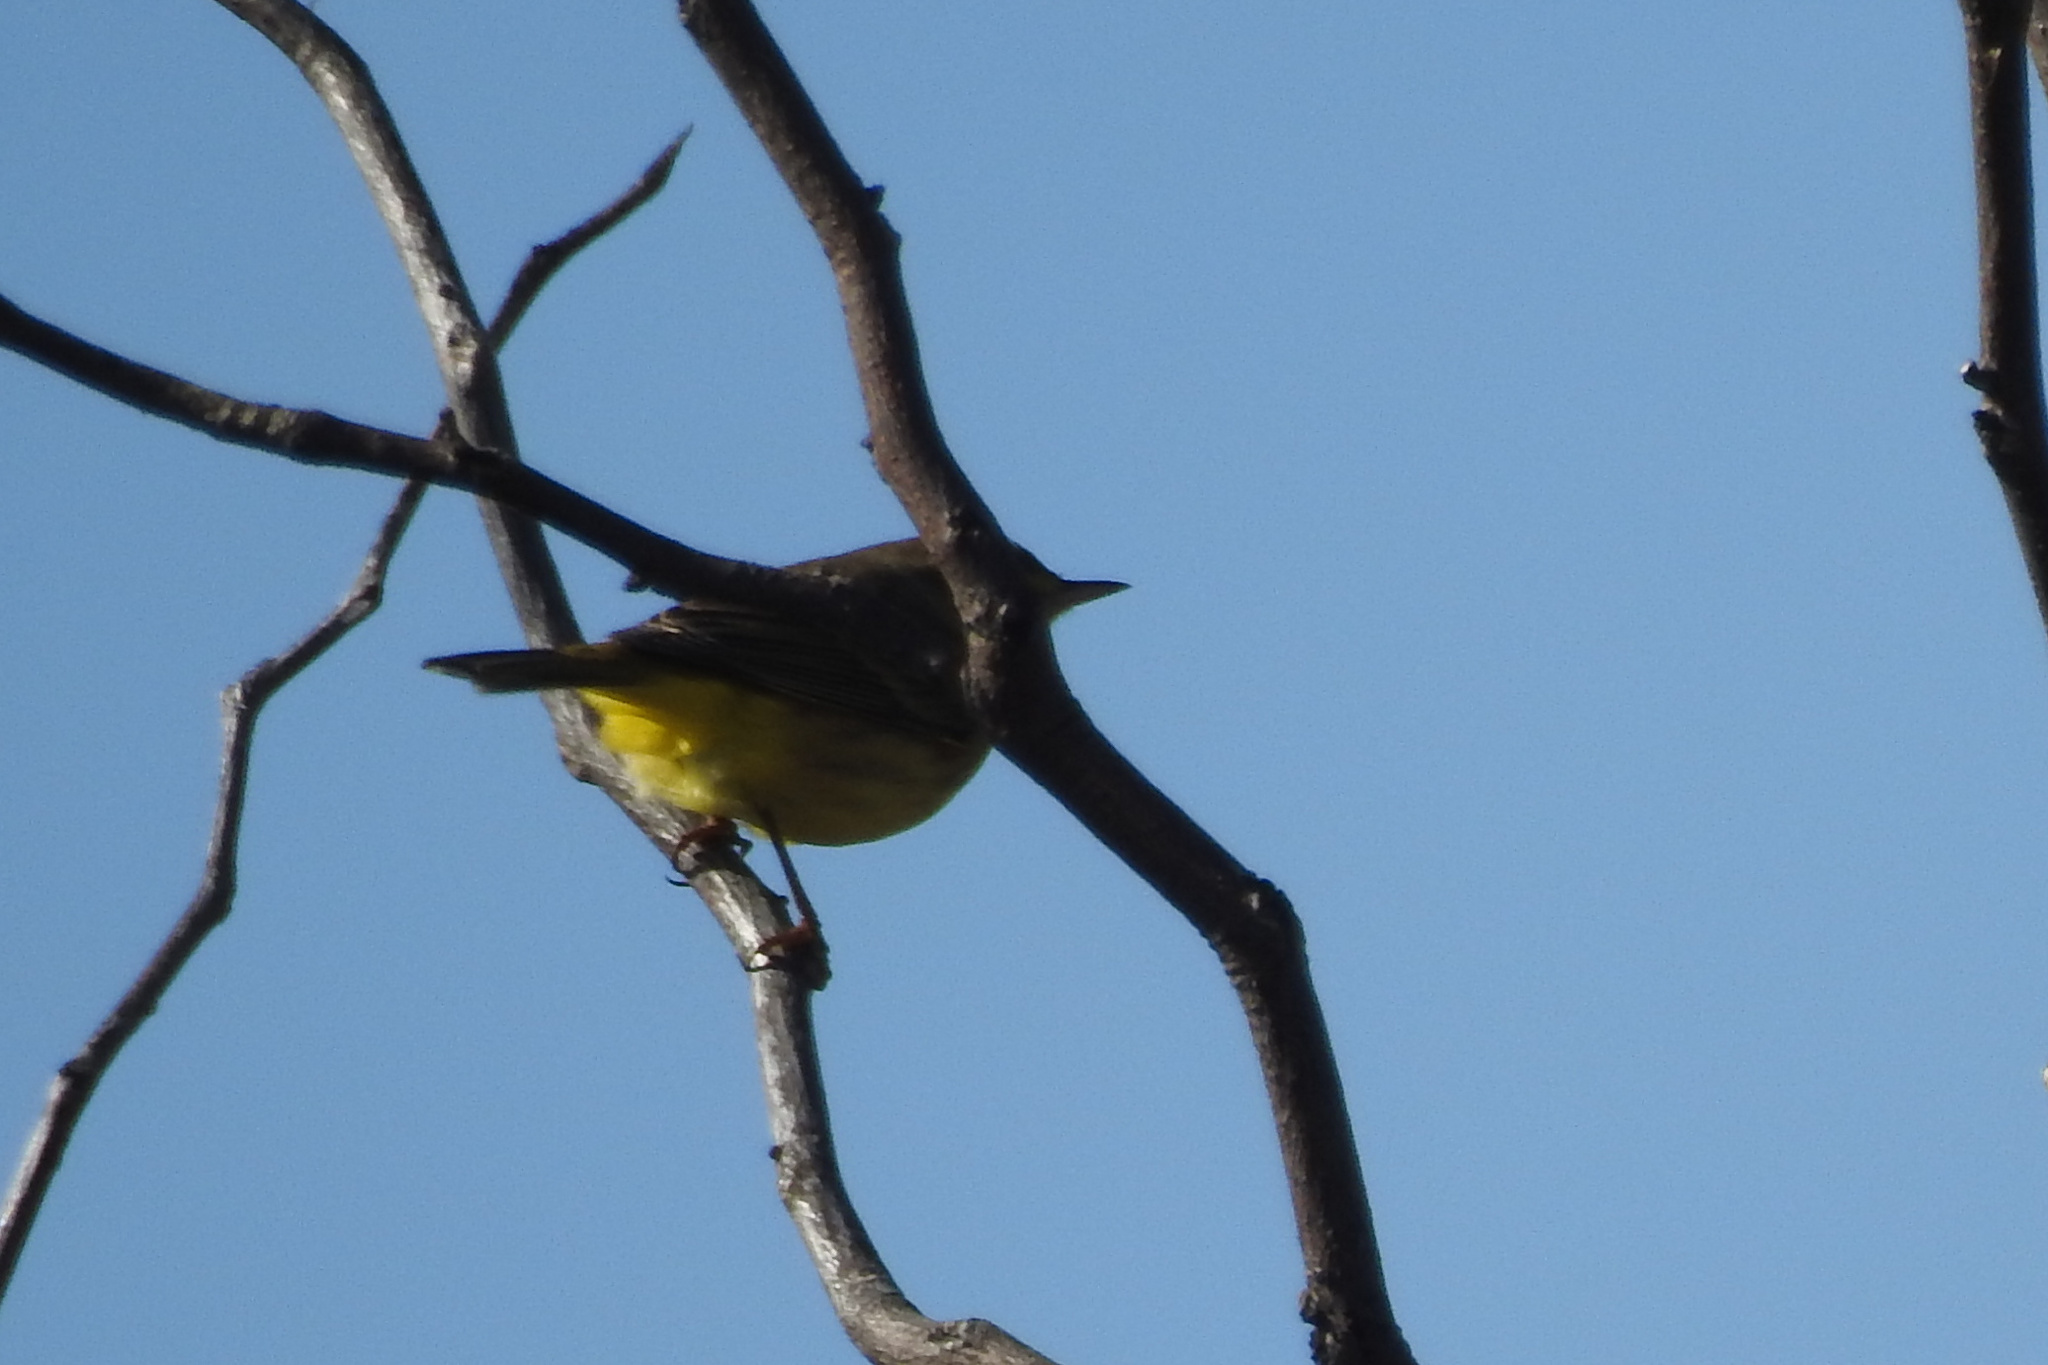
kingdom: Animalia
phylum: Chordata
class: Aves
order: Passeriformes
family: Parulidae
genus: Setophaga
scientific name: Setophaga palmarum
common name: Palm warbler
